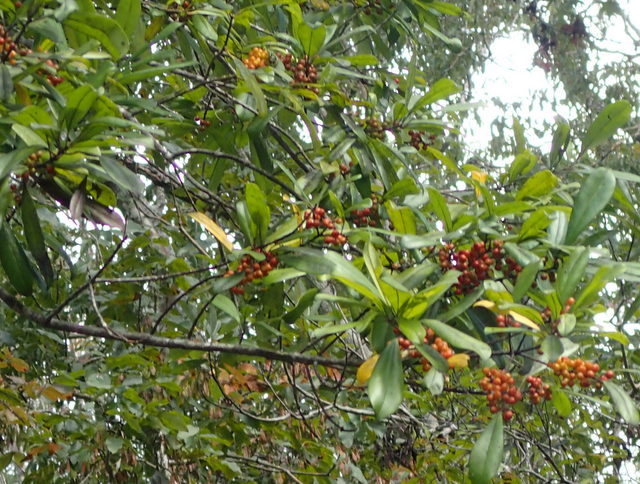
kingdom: Plantae
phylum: Tracheophyta
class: Magnoliopsida
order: Aquifoliales
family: Aquifoliaceae
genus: Ilex
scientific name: Ilex cassine
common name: Dahoon
